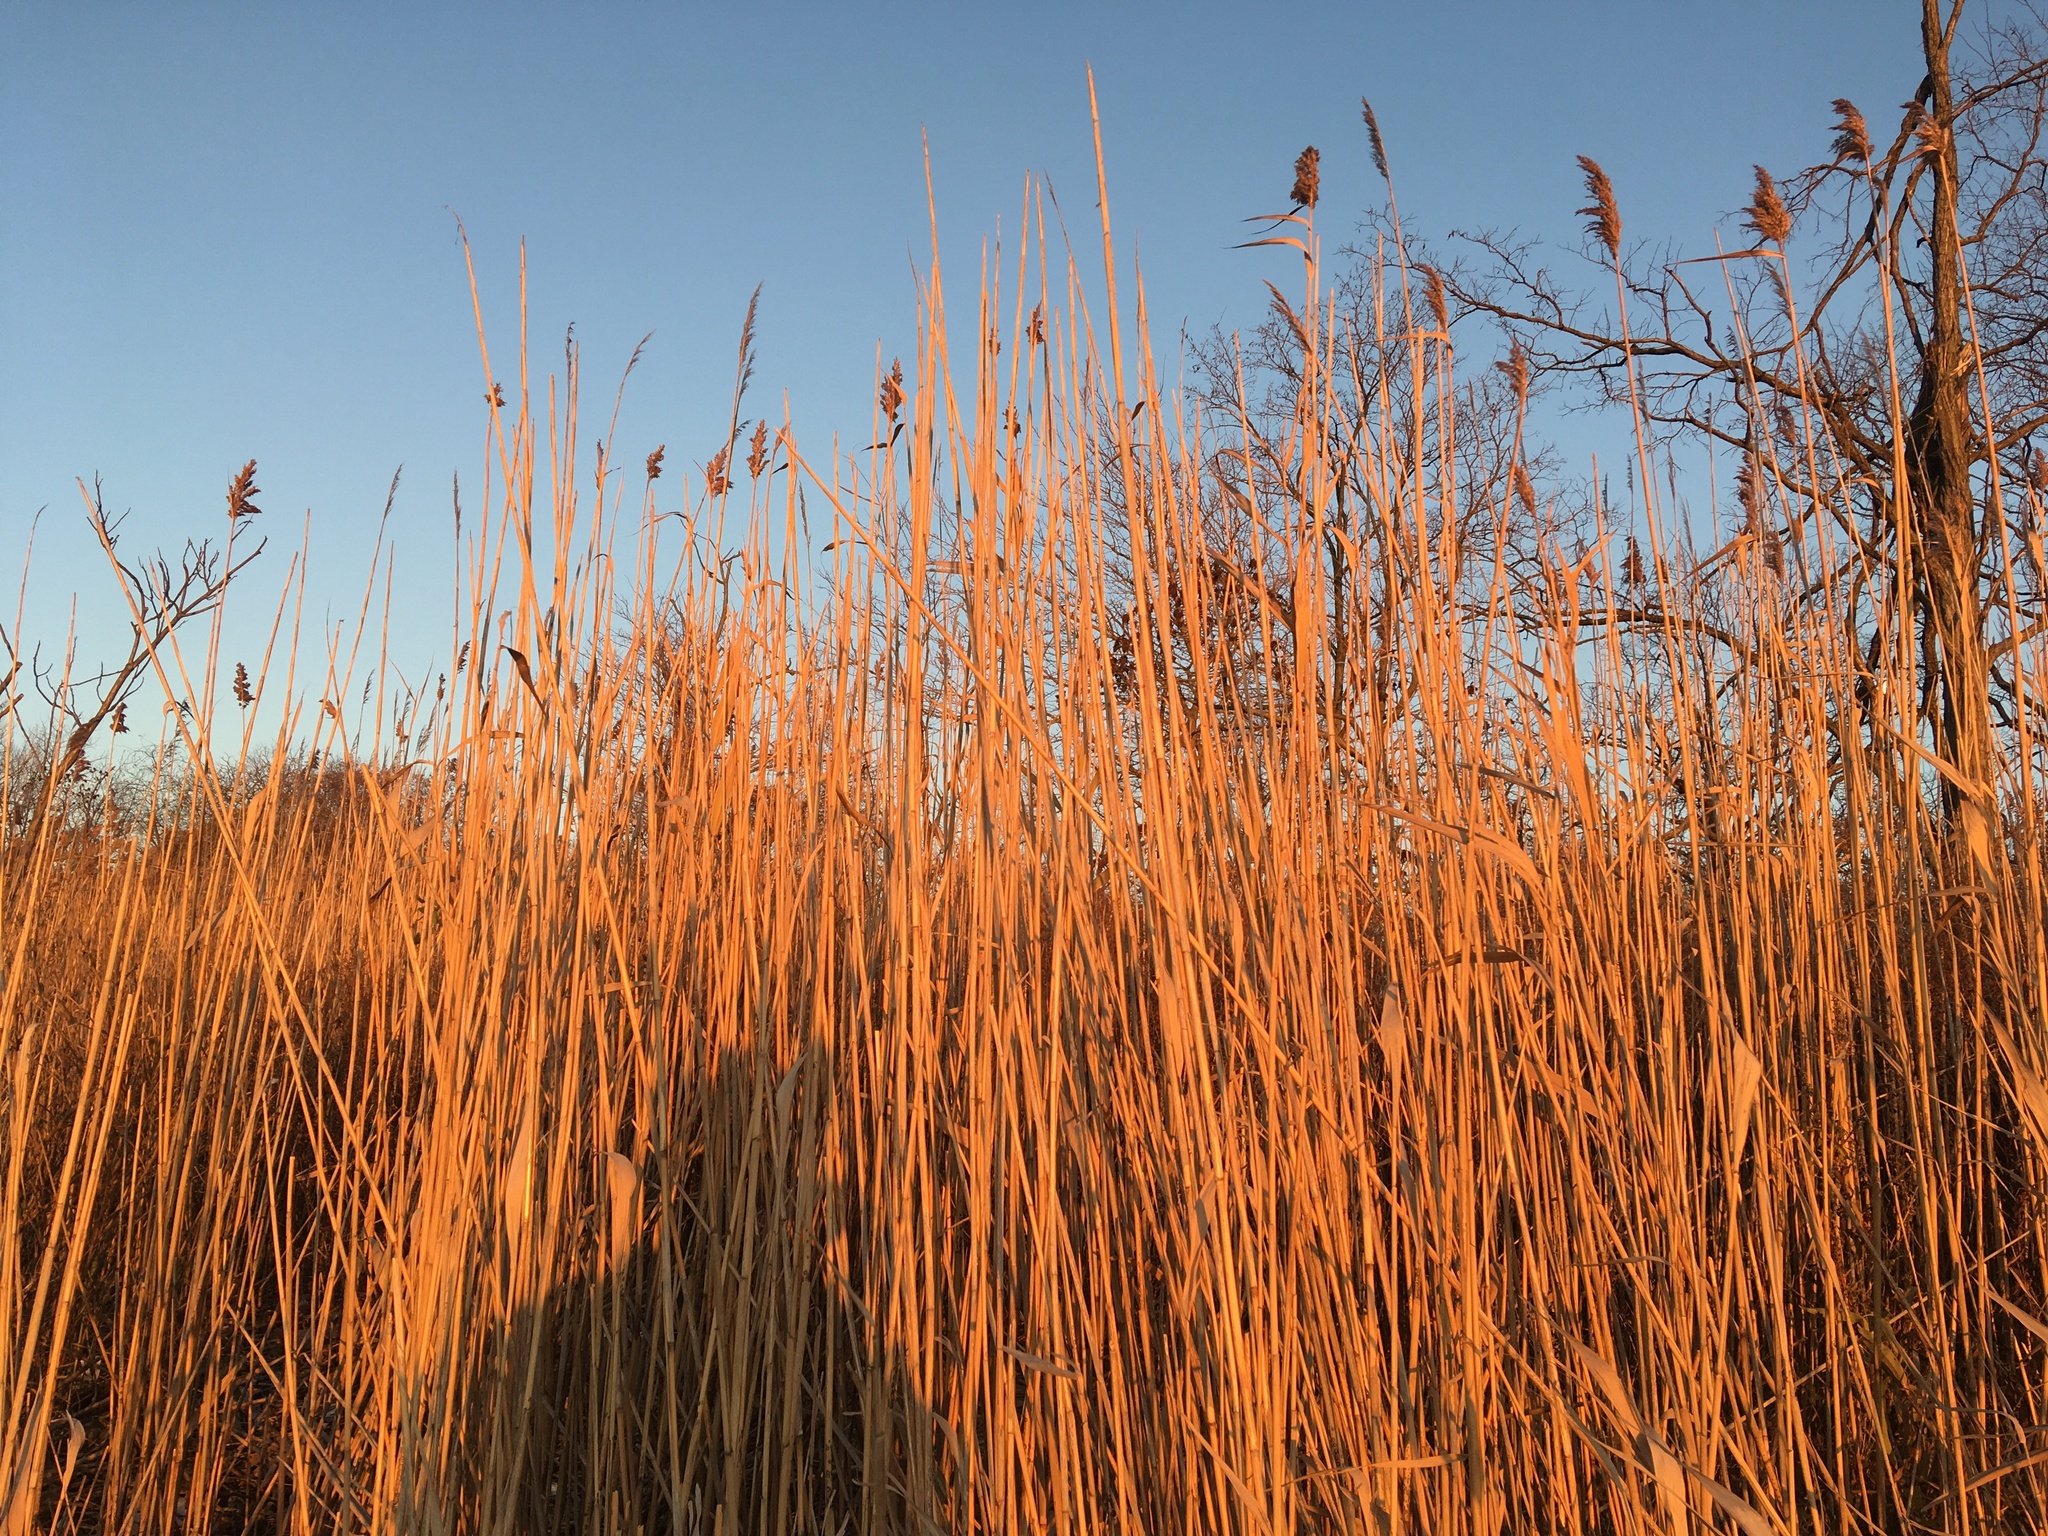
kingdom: Plantae
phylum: Tracheophyta
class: Liliopsida
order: Poales
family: Poaceae
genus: Phragmites
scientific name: Phragmites australis
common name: Common reed
